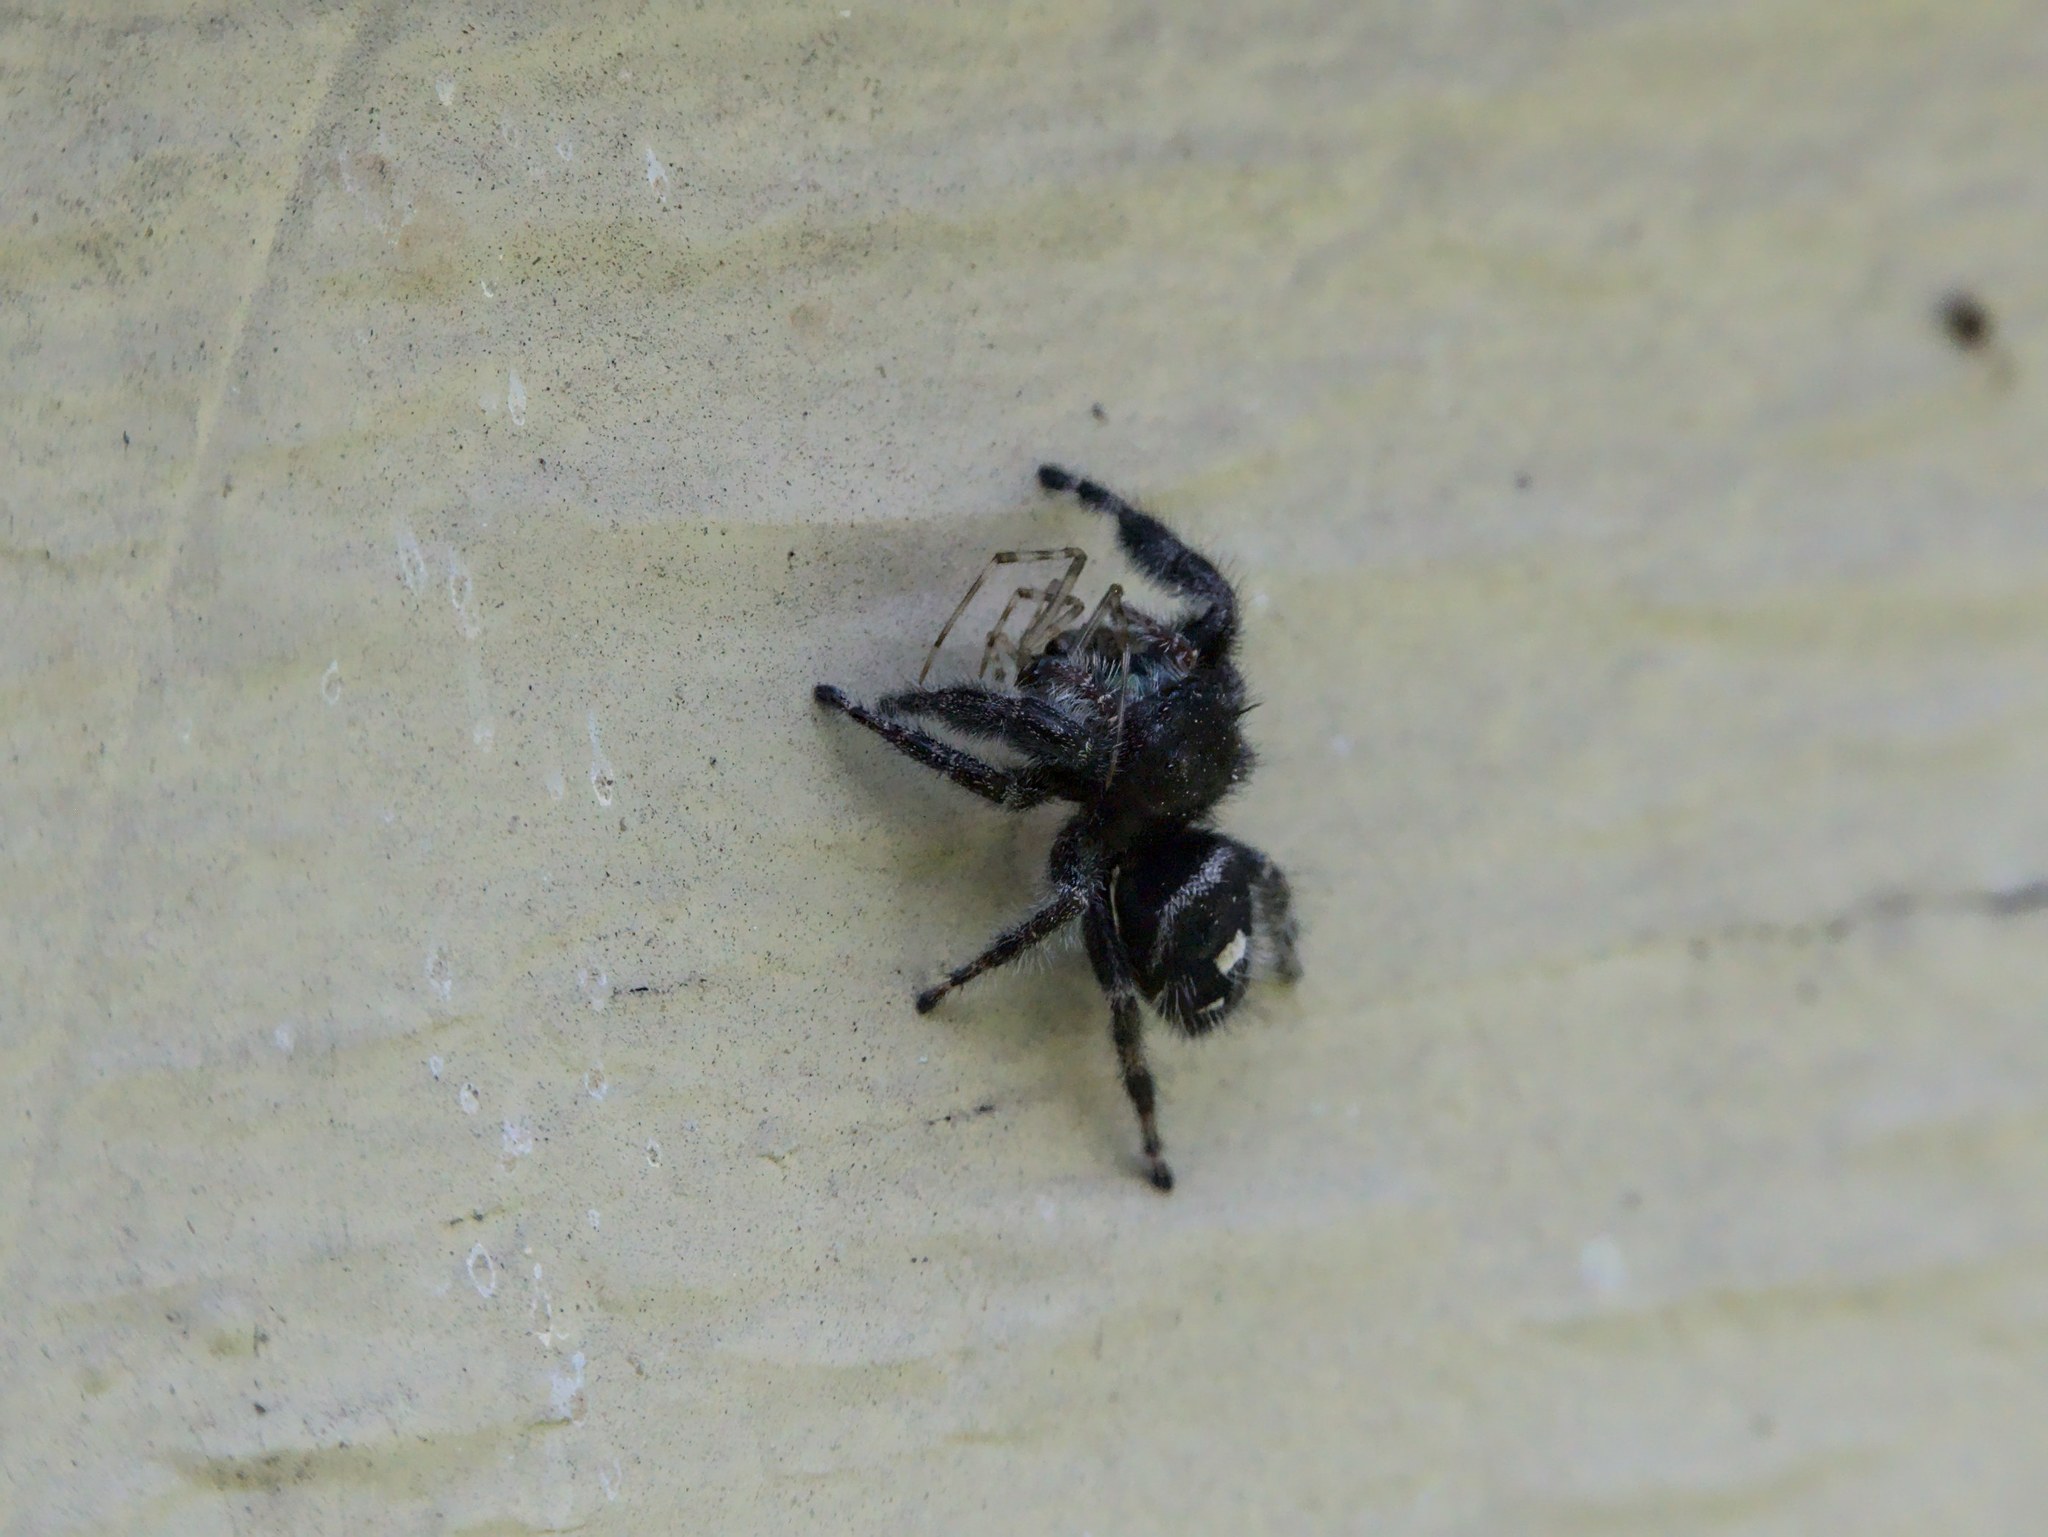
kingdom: Animalia
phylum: Arthropoda
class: Arachnida
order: Araneae
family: Salticidae
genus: Phidippus
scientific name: Phidippus audax
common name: Bold jumper
